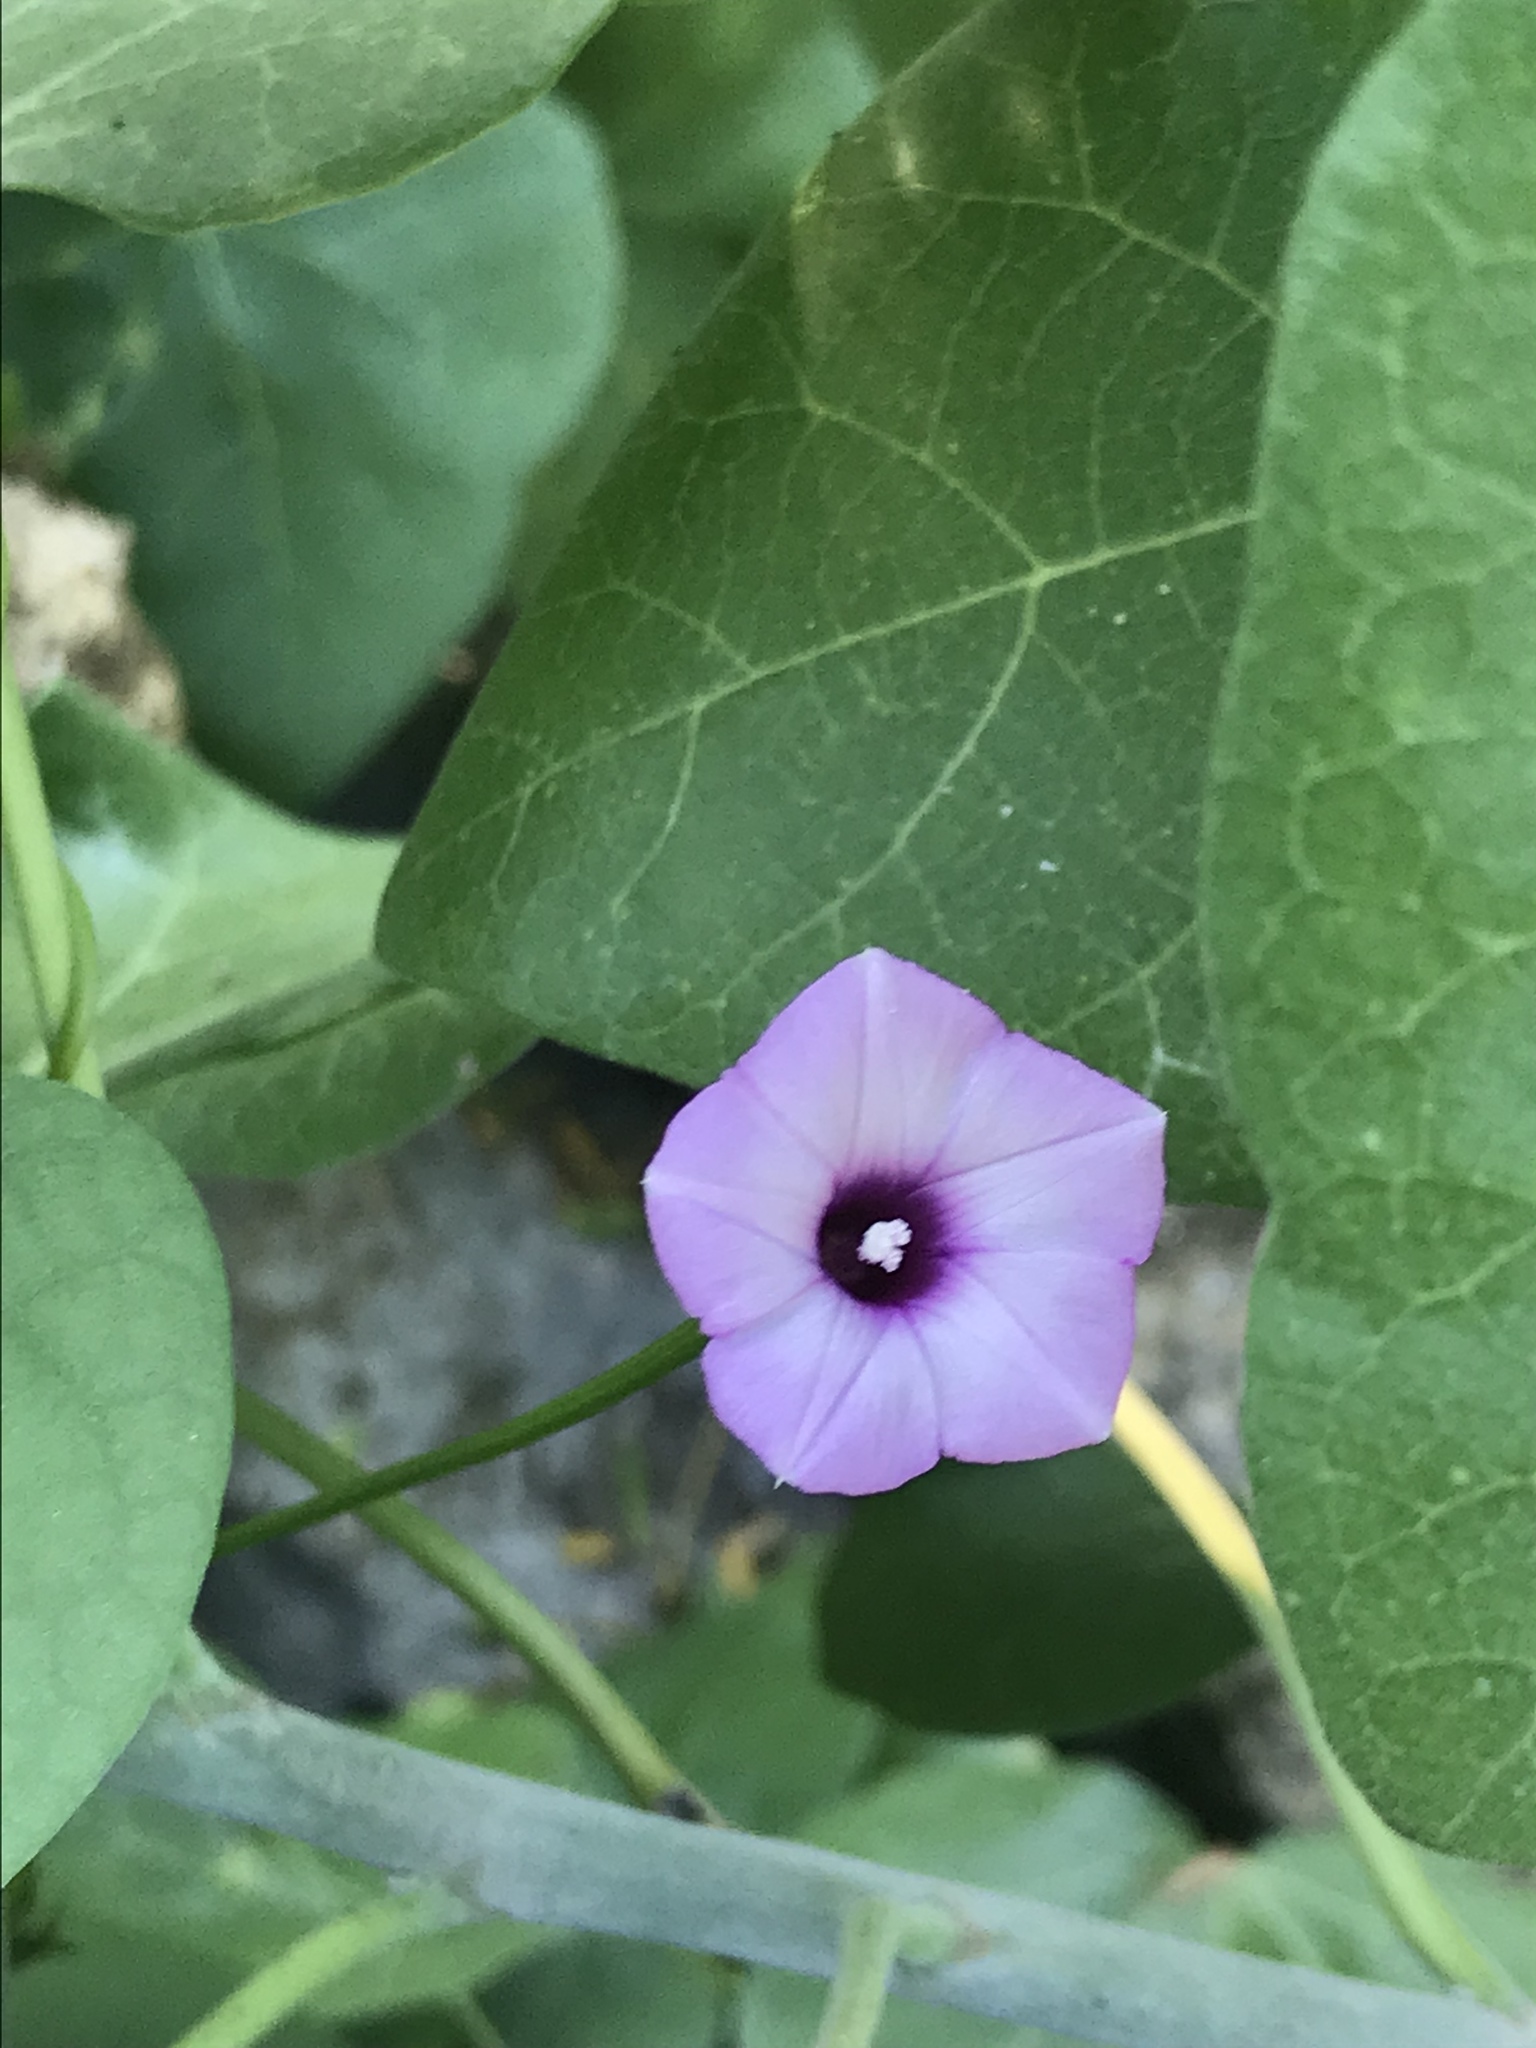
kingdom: Plantae
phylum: Tracheophyta
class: Magnoliopsida
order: Solanales
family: Convolvulaceae
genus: Ipomoea
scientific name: Ipomoea triloba
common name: Little-bell
